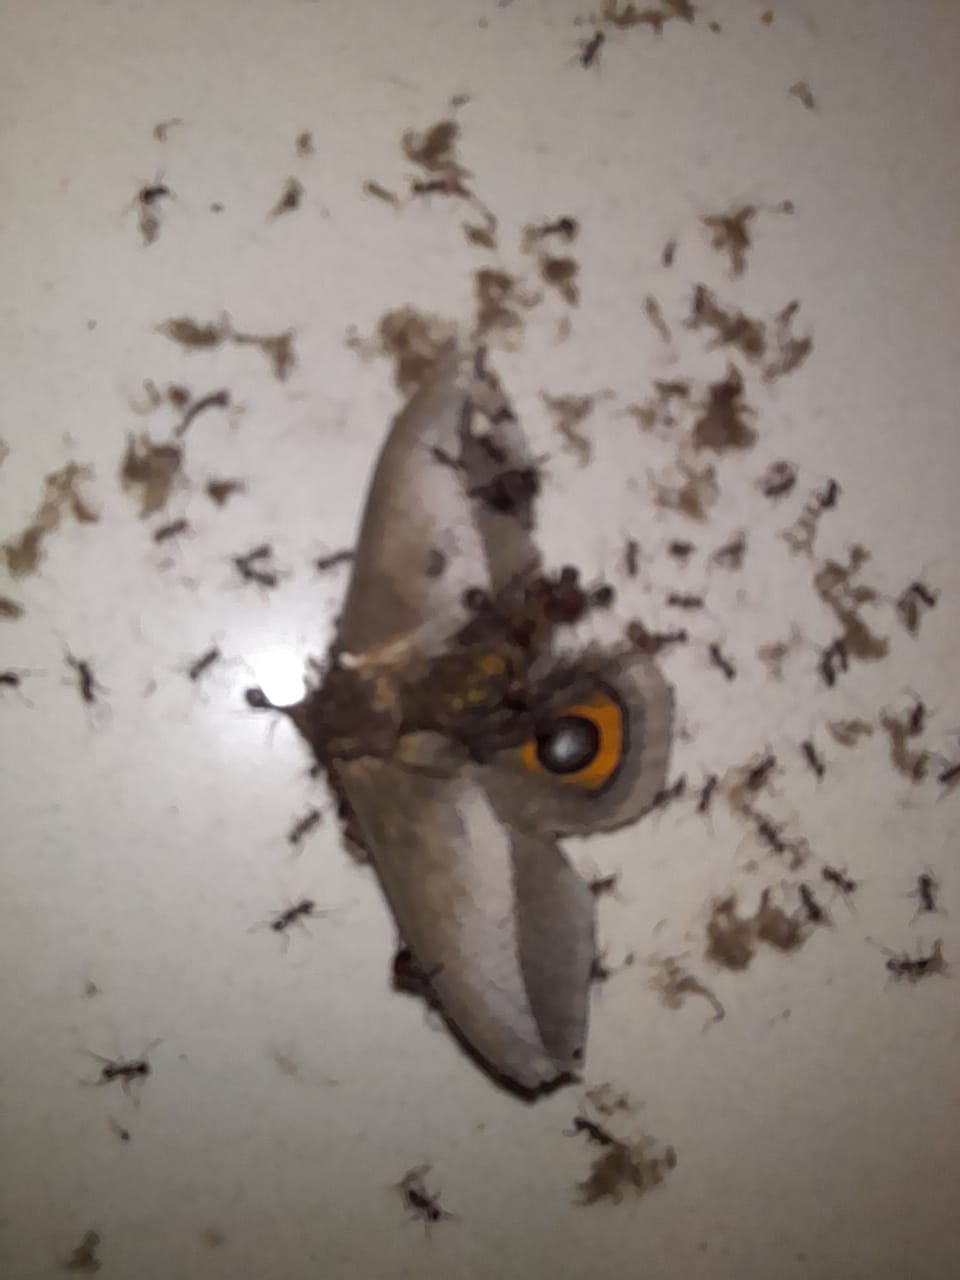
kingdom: Animalia
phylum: Arthropoda
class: Insecta
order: Lepidoptera
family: Saturniidae
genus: Automeris
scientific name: Automeris umbrosa
